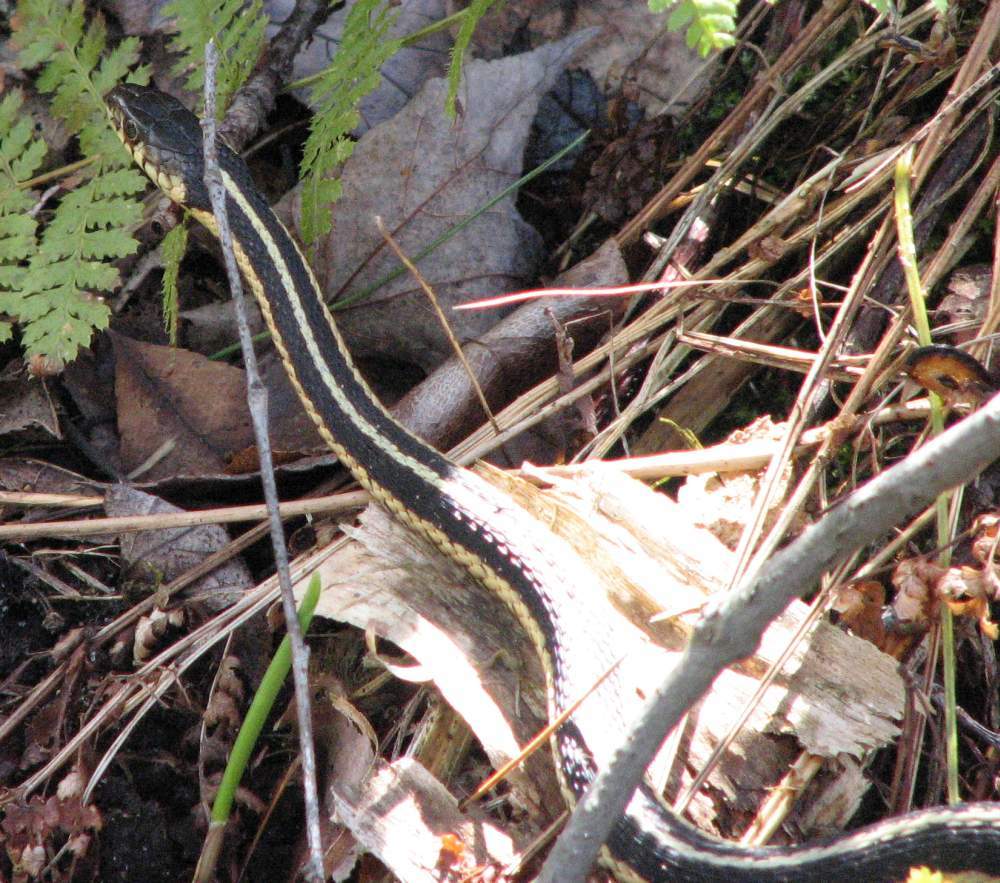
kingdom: Animalia
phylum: Chordata
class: Squamata
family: Colubridae
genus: Thamnophis
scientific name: Thamnophis sirtalis
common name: Common garter snake
